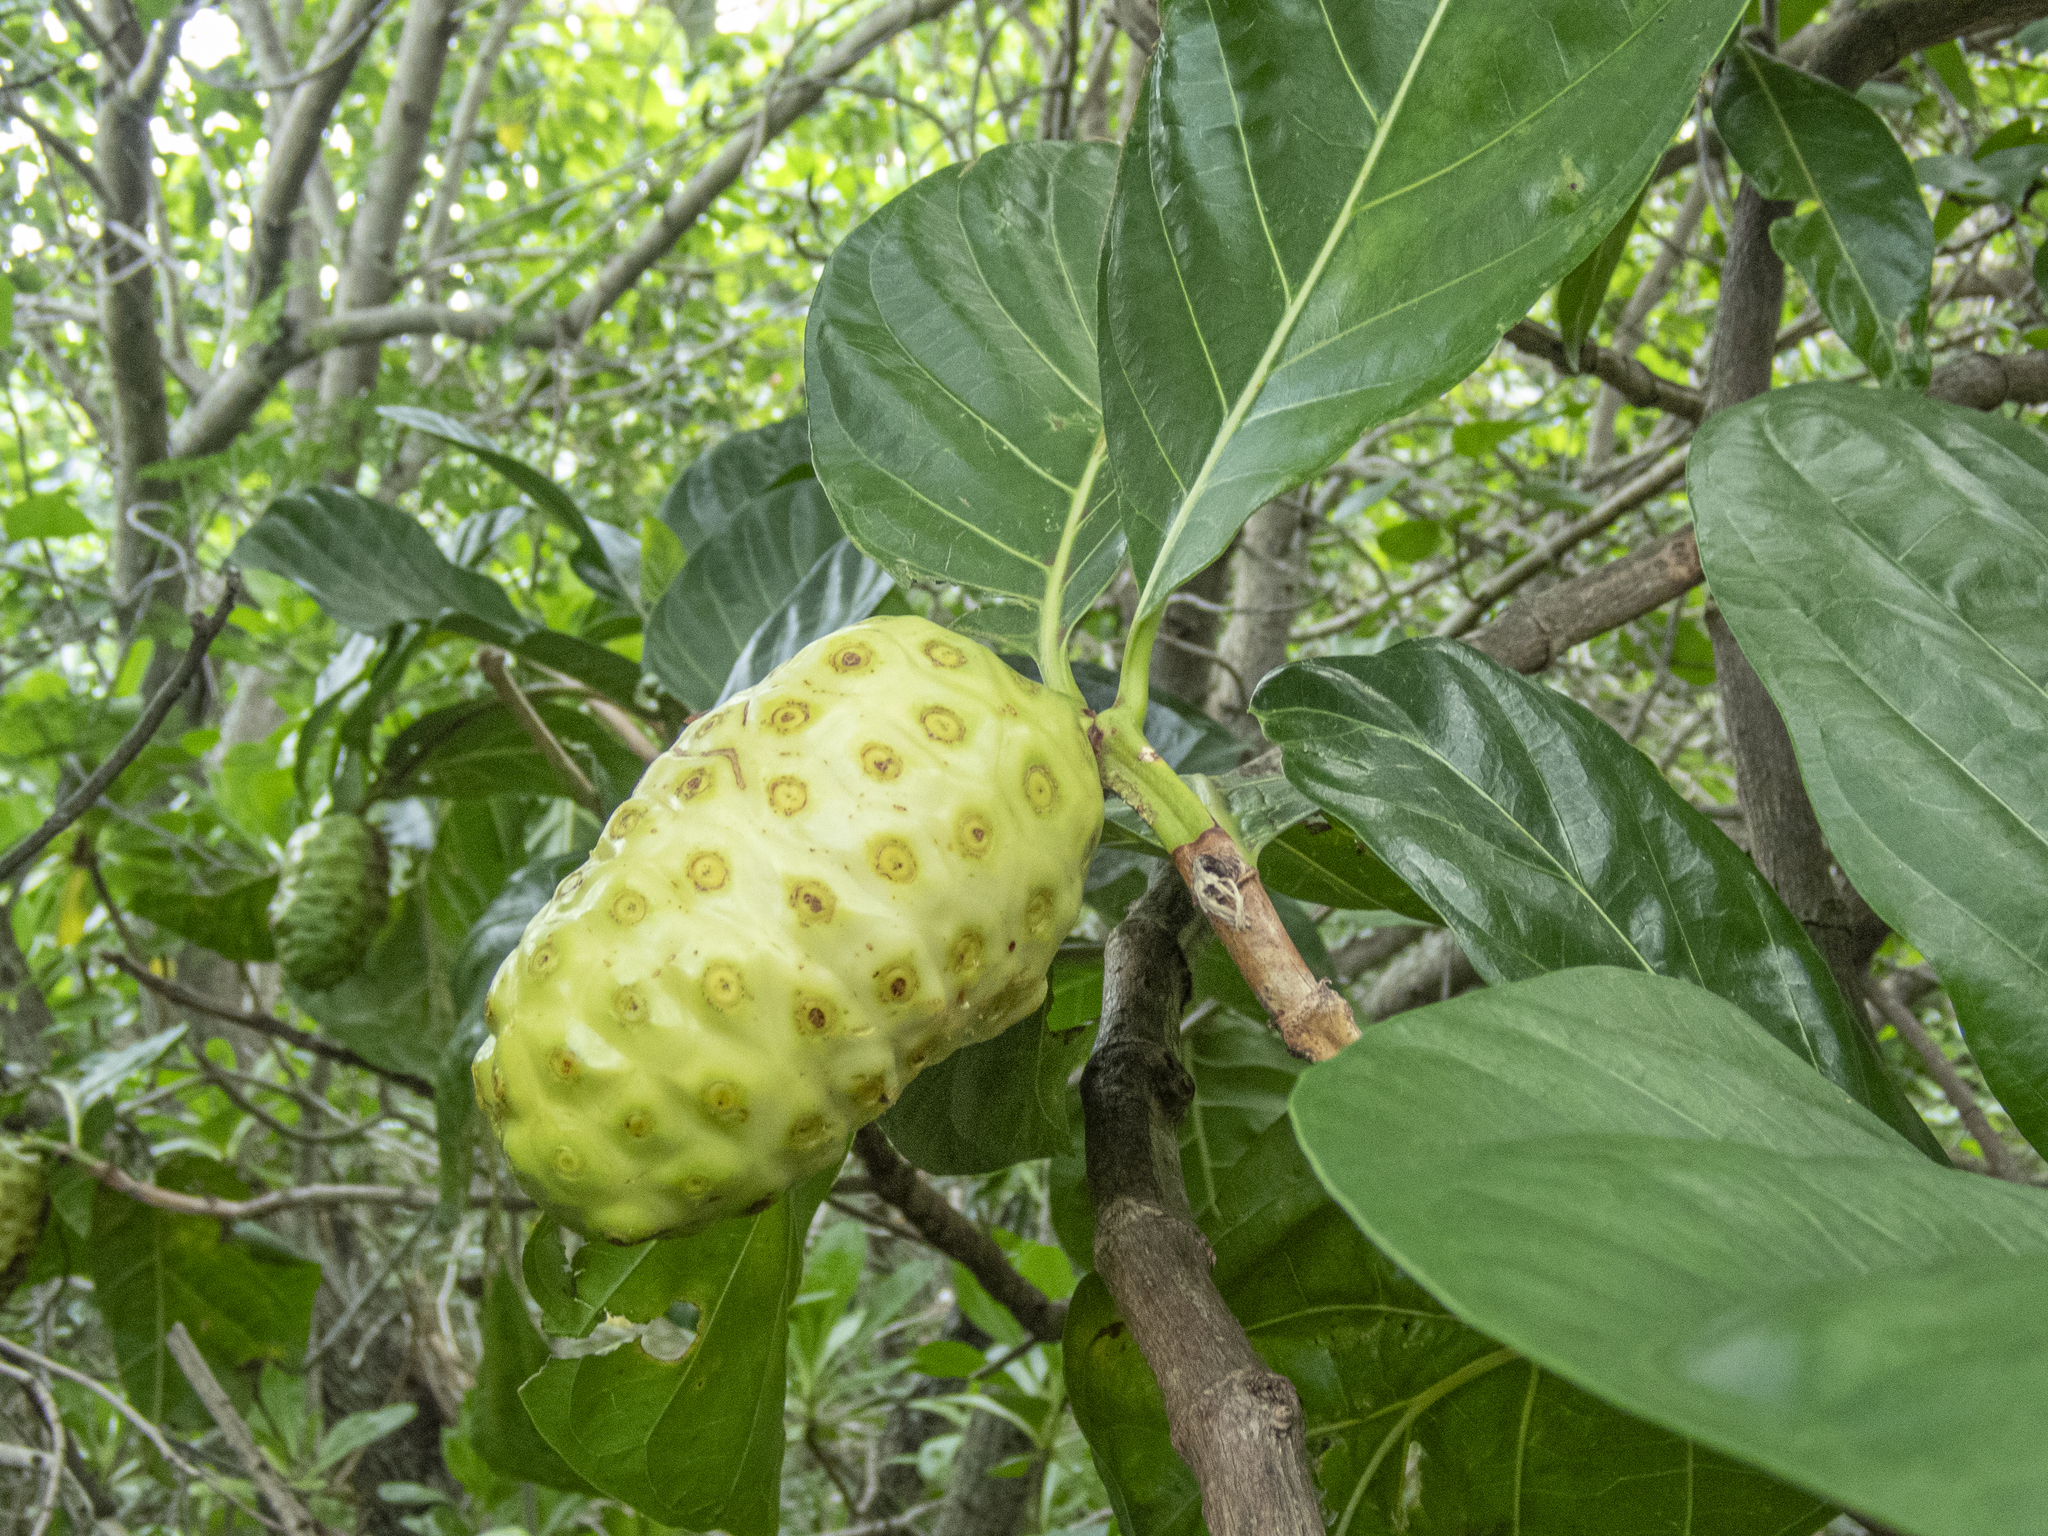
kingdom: Plantae
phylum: Tracheophyta
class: Magnoliopsida
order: Gentianales
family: Rubiaceae
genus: Morinda
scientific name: Morinda citrifolia
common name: Indian-mulberry
